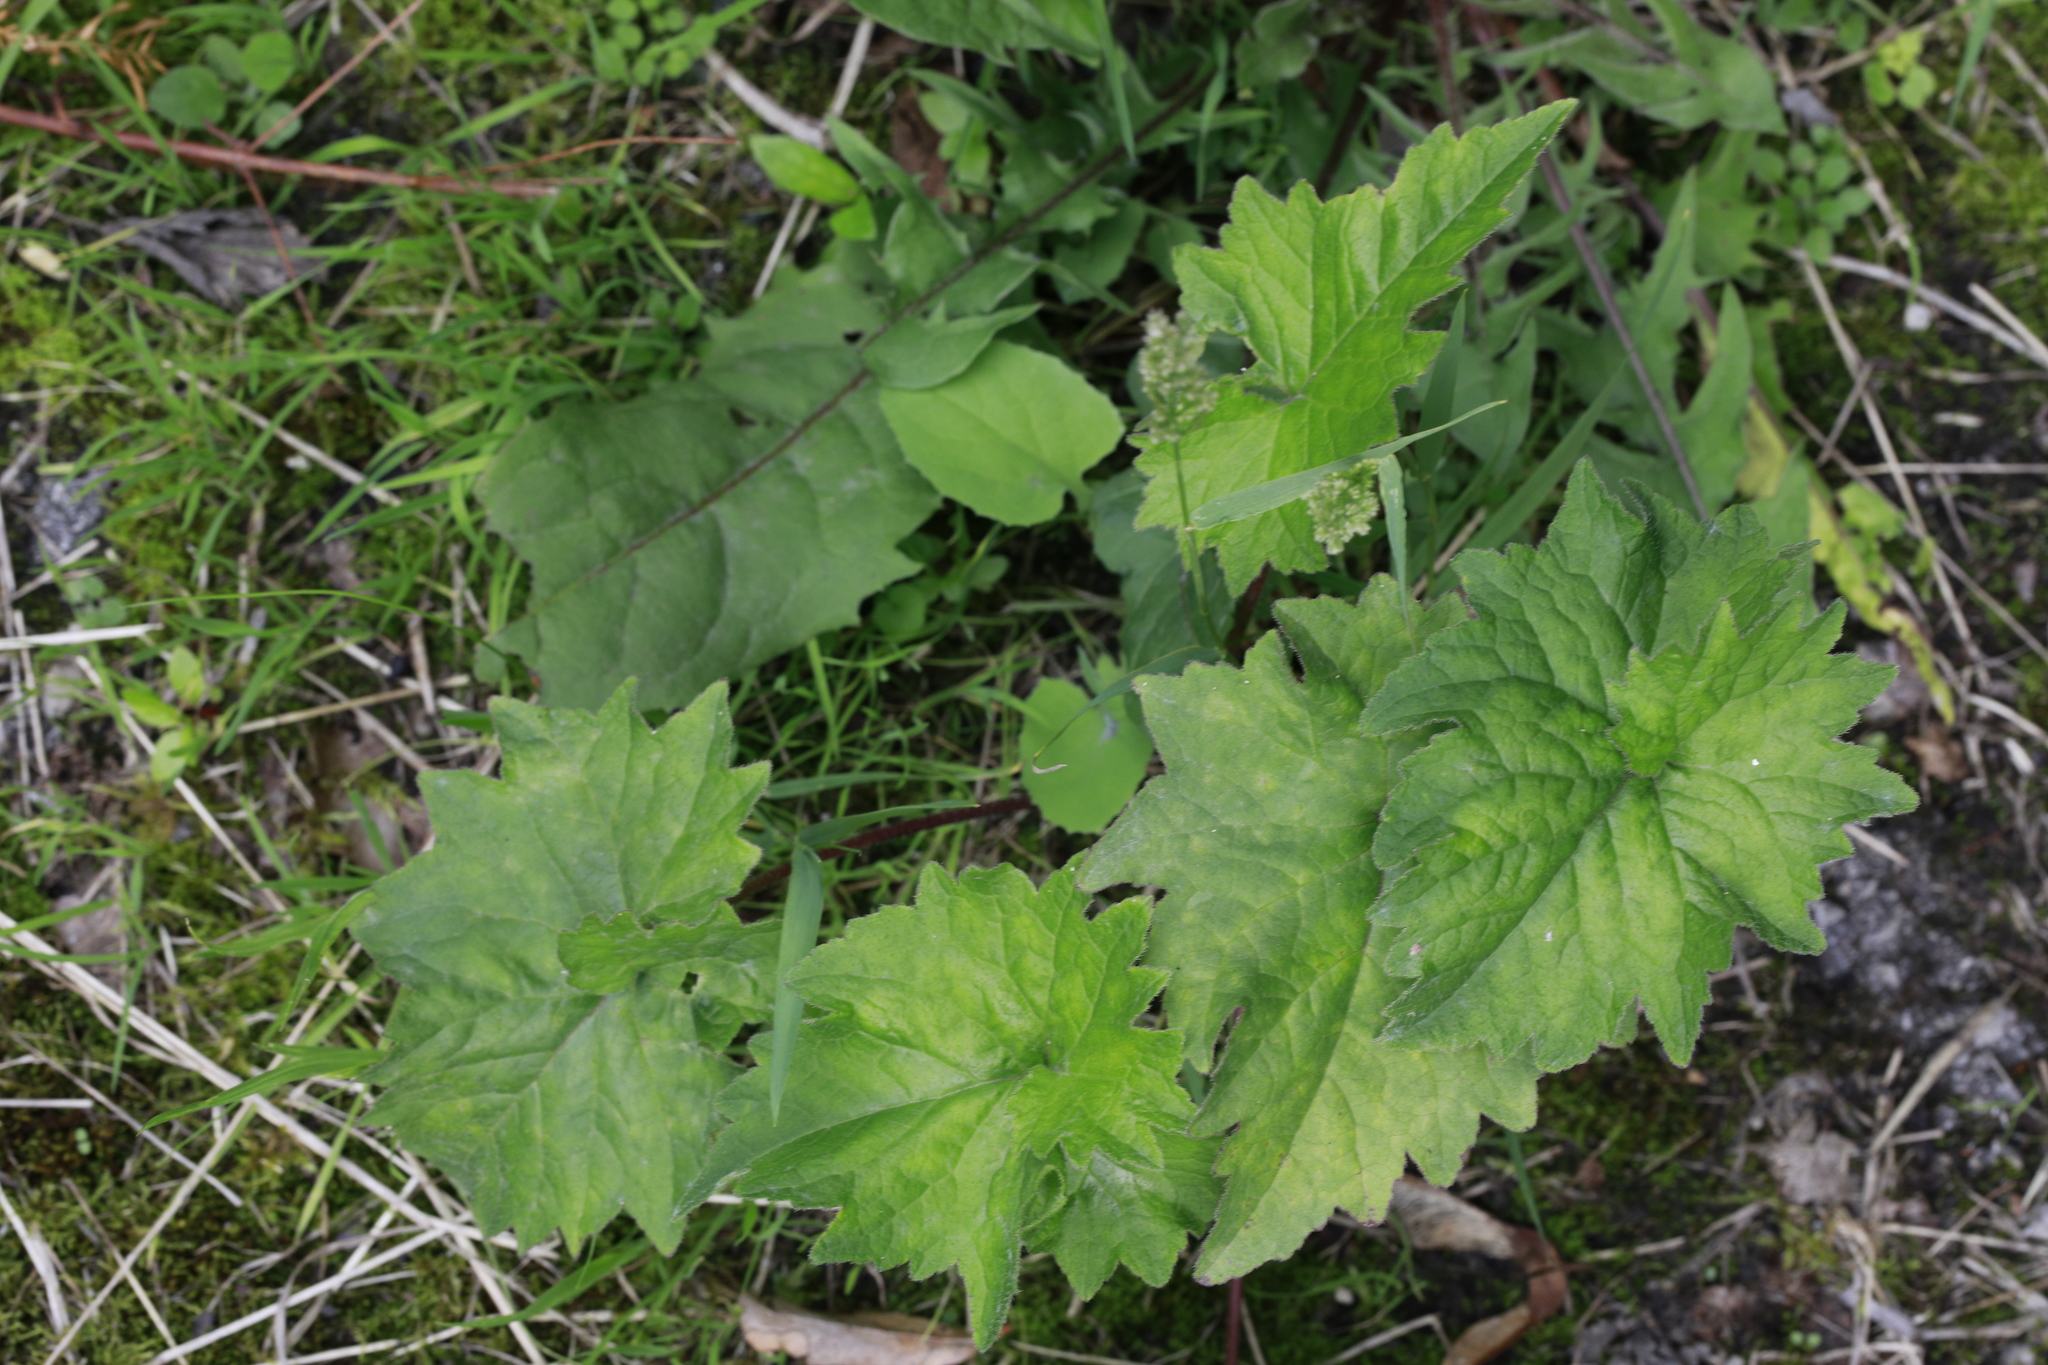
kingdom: Plantae
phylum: Tracheophyta
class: Magnoliopsida
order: Asterales
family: Campanulaceae
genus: Campanula
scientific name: Campanula trachelium
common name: Nettle-leaved bellflower
